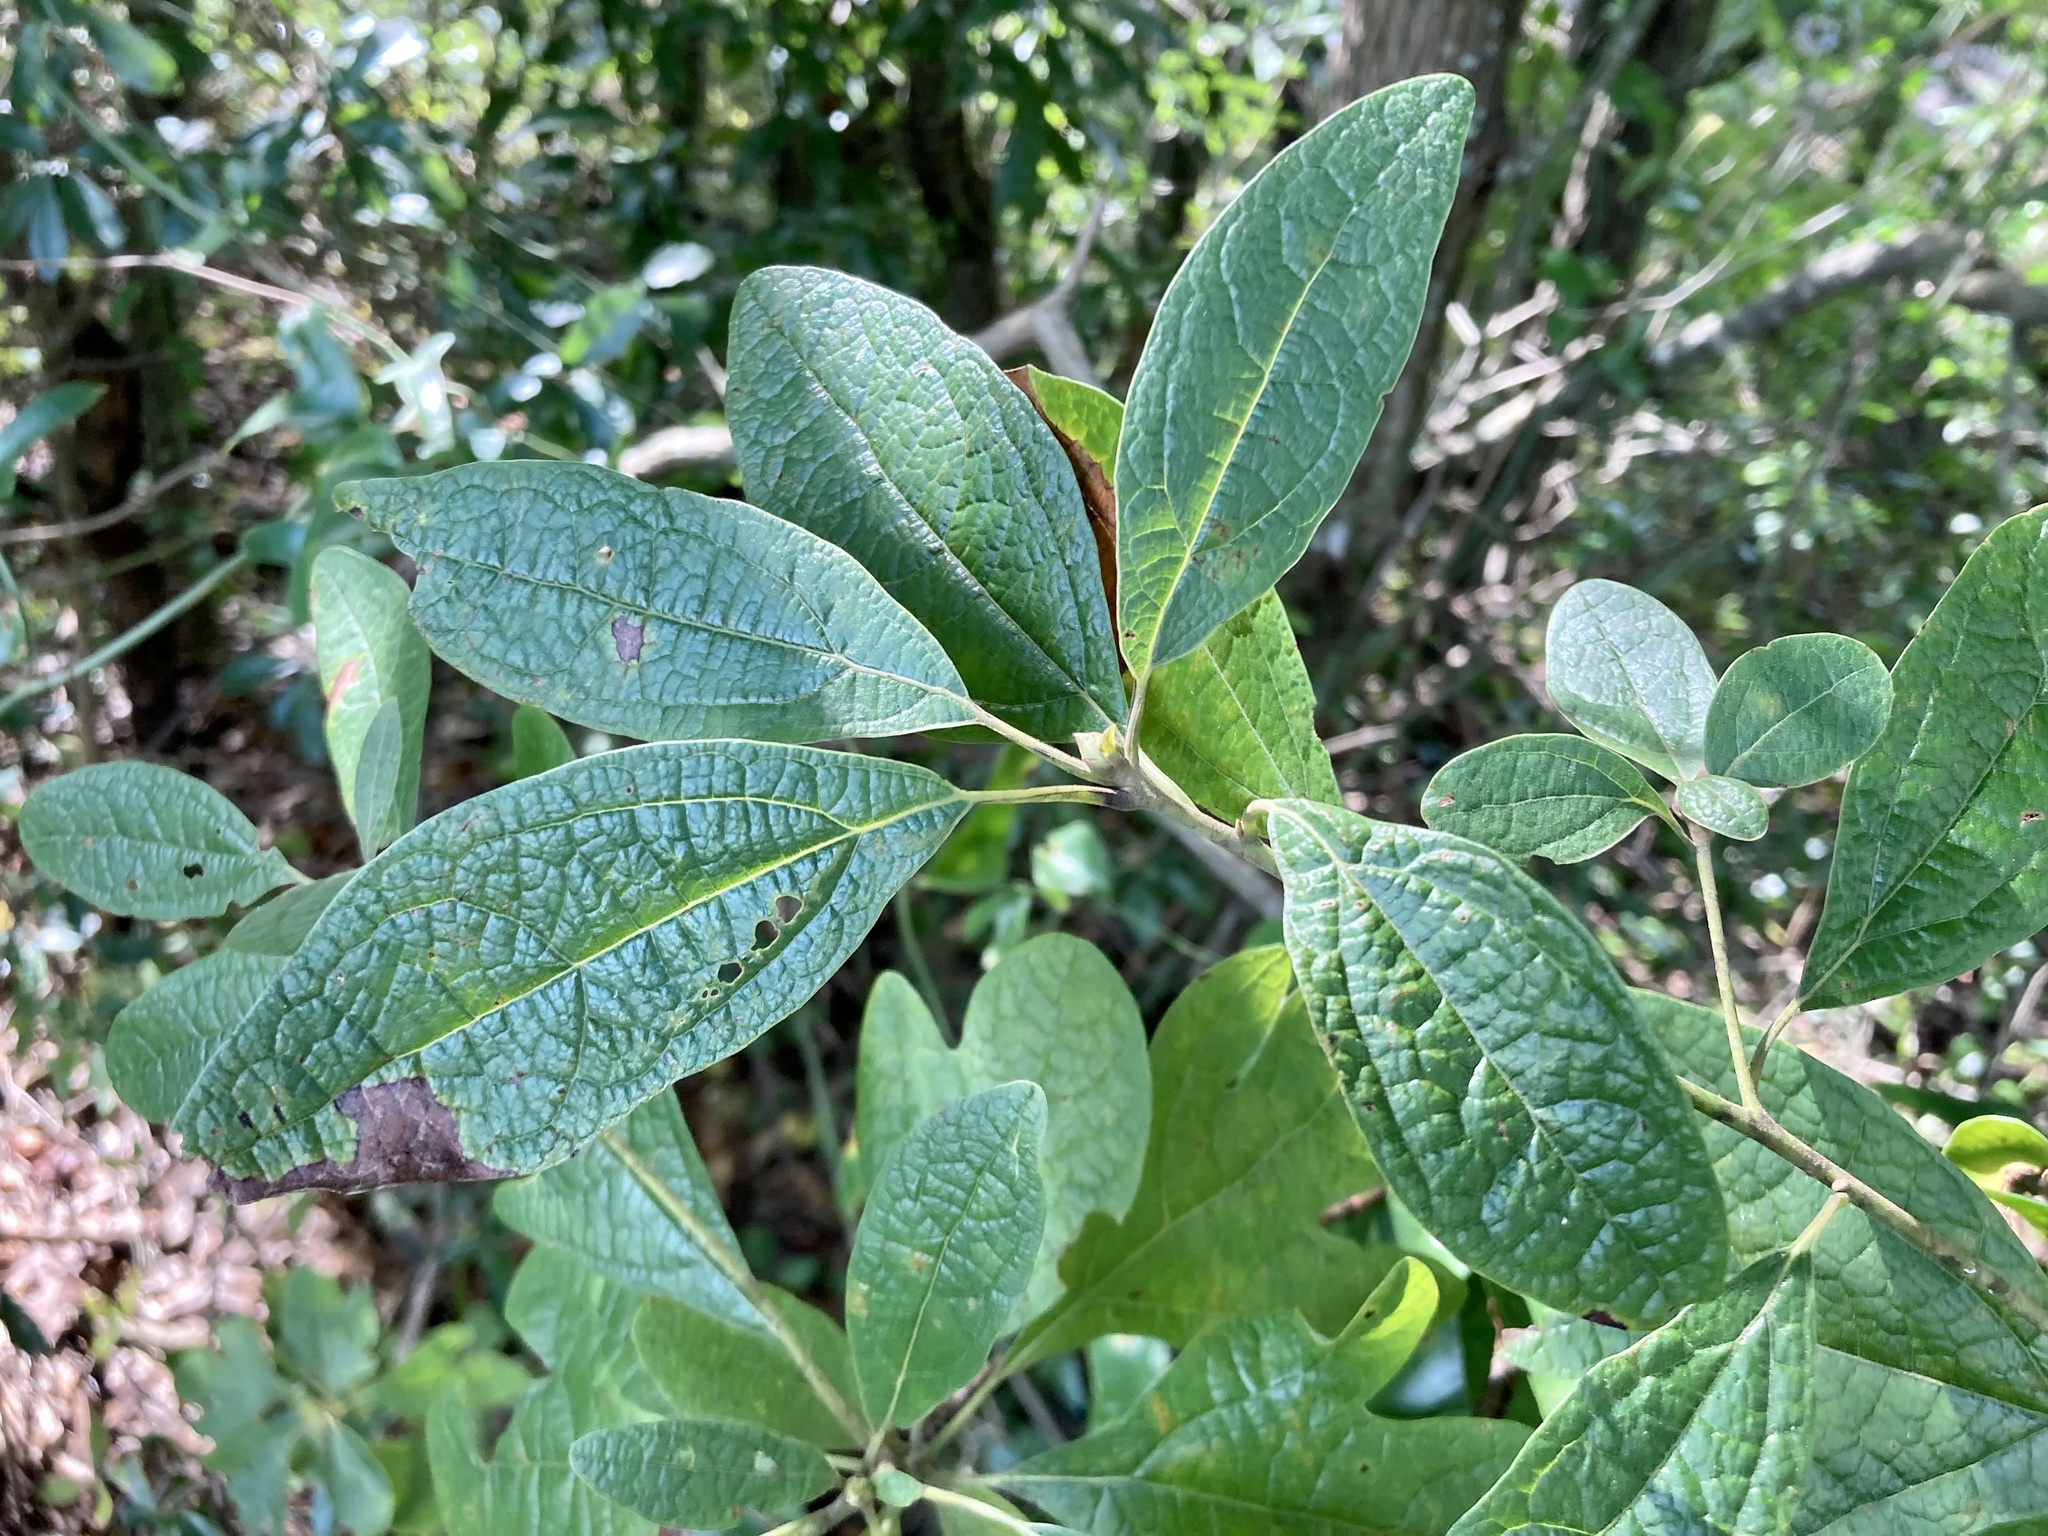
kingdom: Plantae
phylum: Tracheophyta
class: Magnoliopsida
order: Laurales
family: Lauraceae
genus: Sassafras
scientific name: Sassafras albidum
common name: Sassafras
